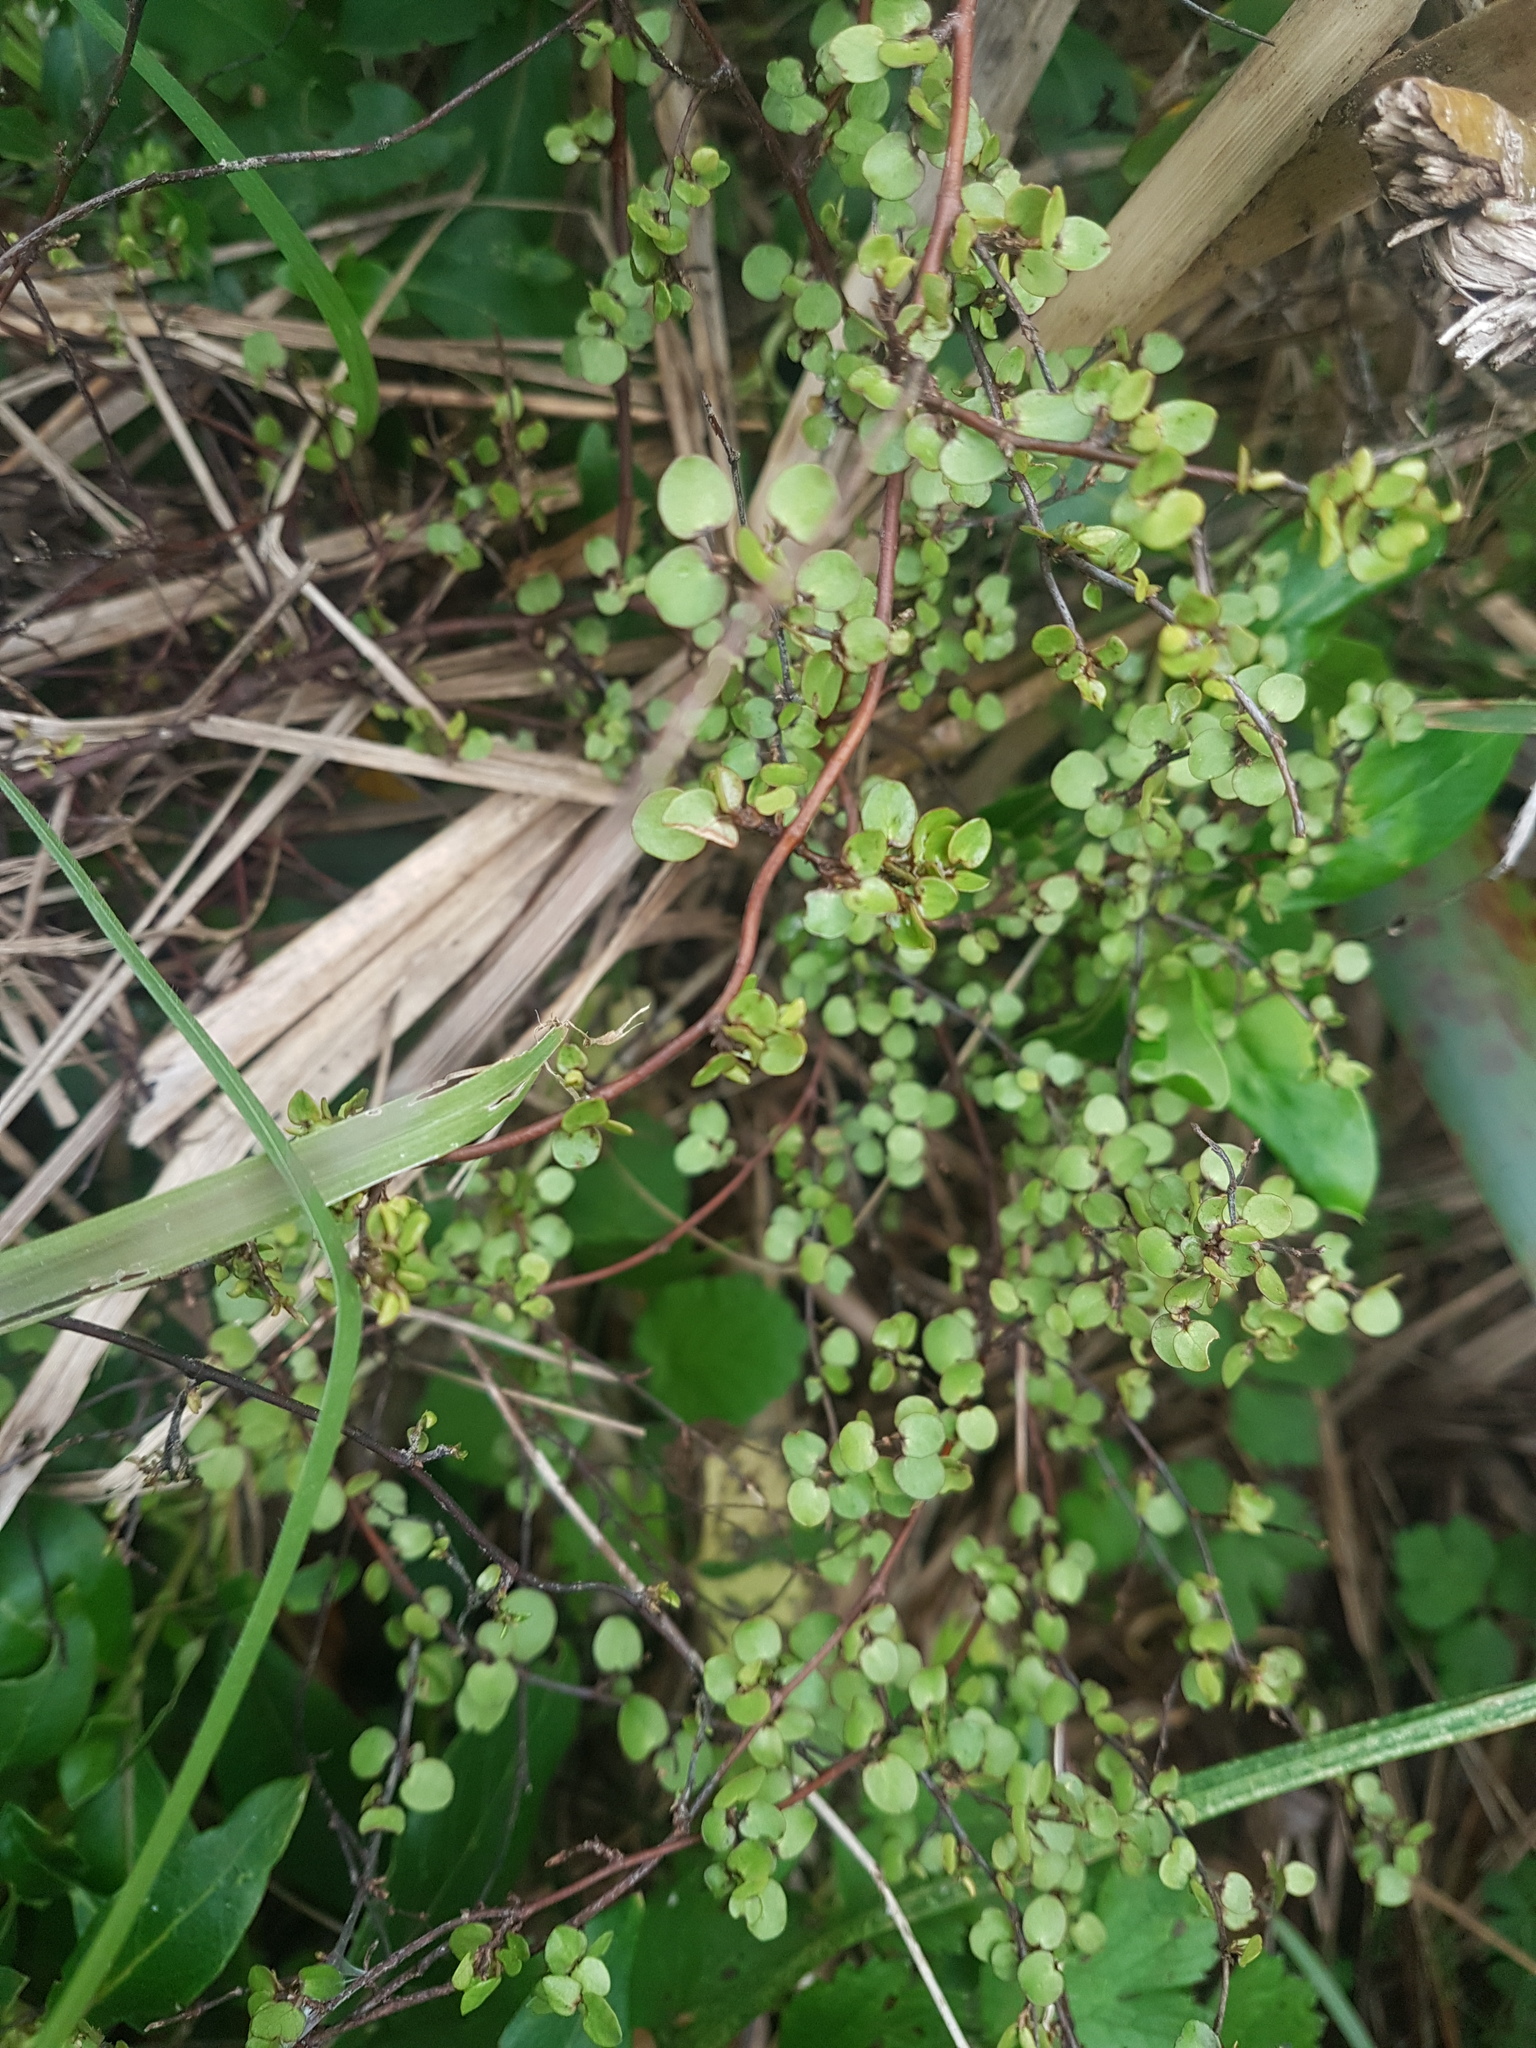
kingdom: Plantae
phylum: Tracheophyta
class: Magnoliopsida
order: Caryophyllales
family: Polygonaceae
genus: Muehlenbeckia
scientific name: Muehlenbeckia complexa
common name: Wireplant
